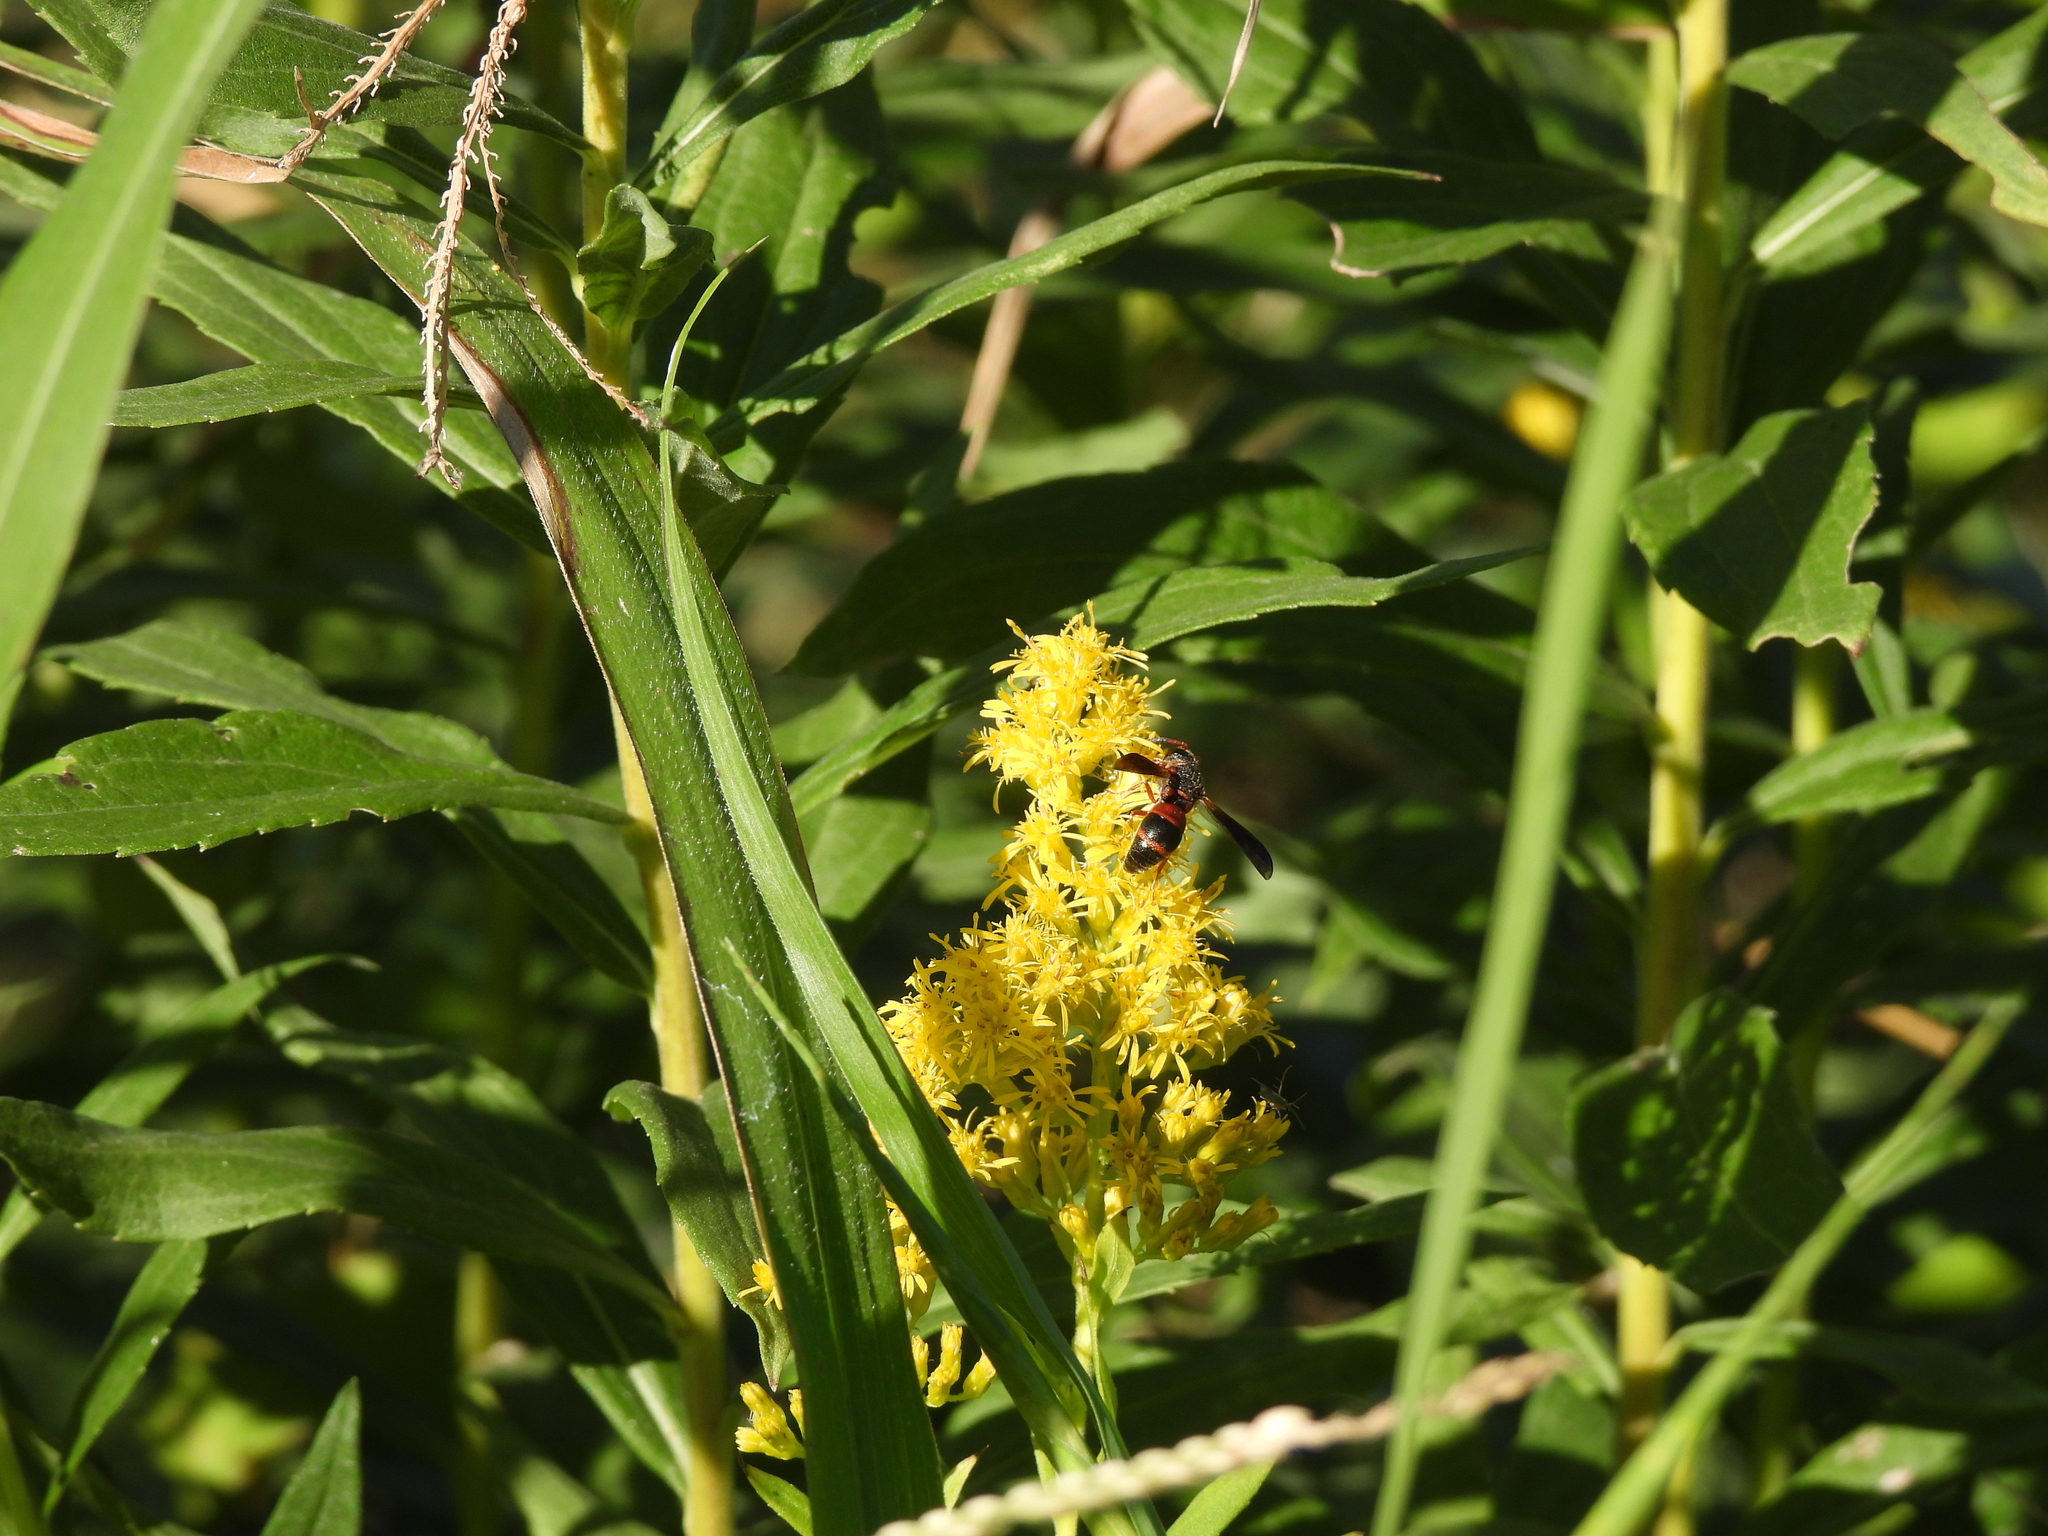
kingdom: Animalia
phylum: Arthropoda
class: Insecta
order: Hymenoptera
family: Eumenidae
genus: Pachodynerus
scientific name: Pachodynerus erynnis
